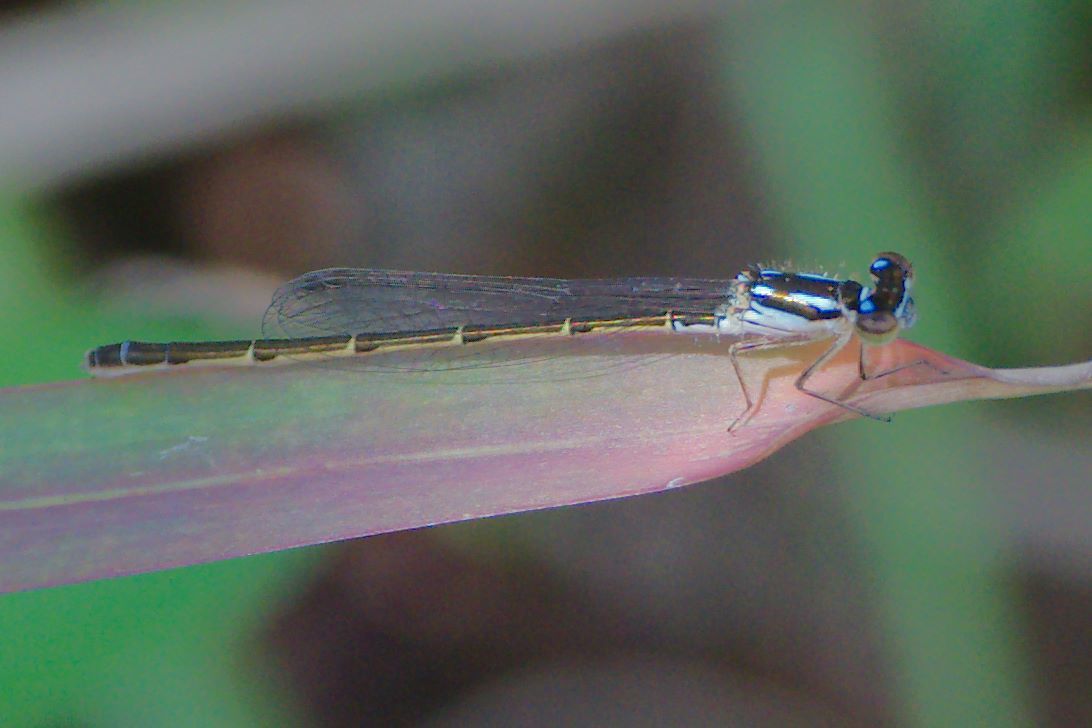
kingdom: Animalia
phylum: Arthropoda
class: Insecta
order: Odonata
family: Coenagrionidae
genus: Ischnura
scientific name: Ischnura posita
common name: Fragile forktail
